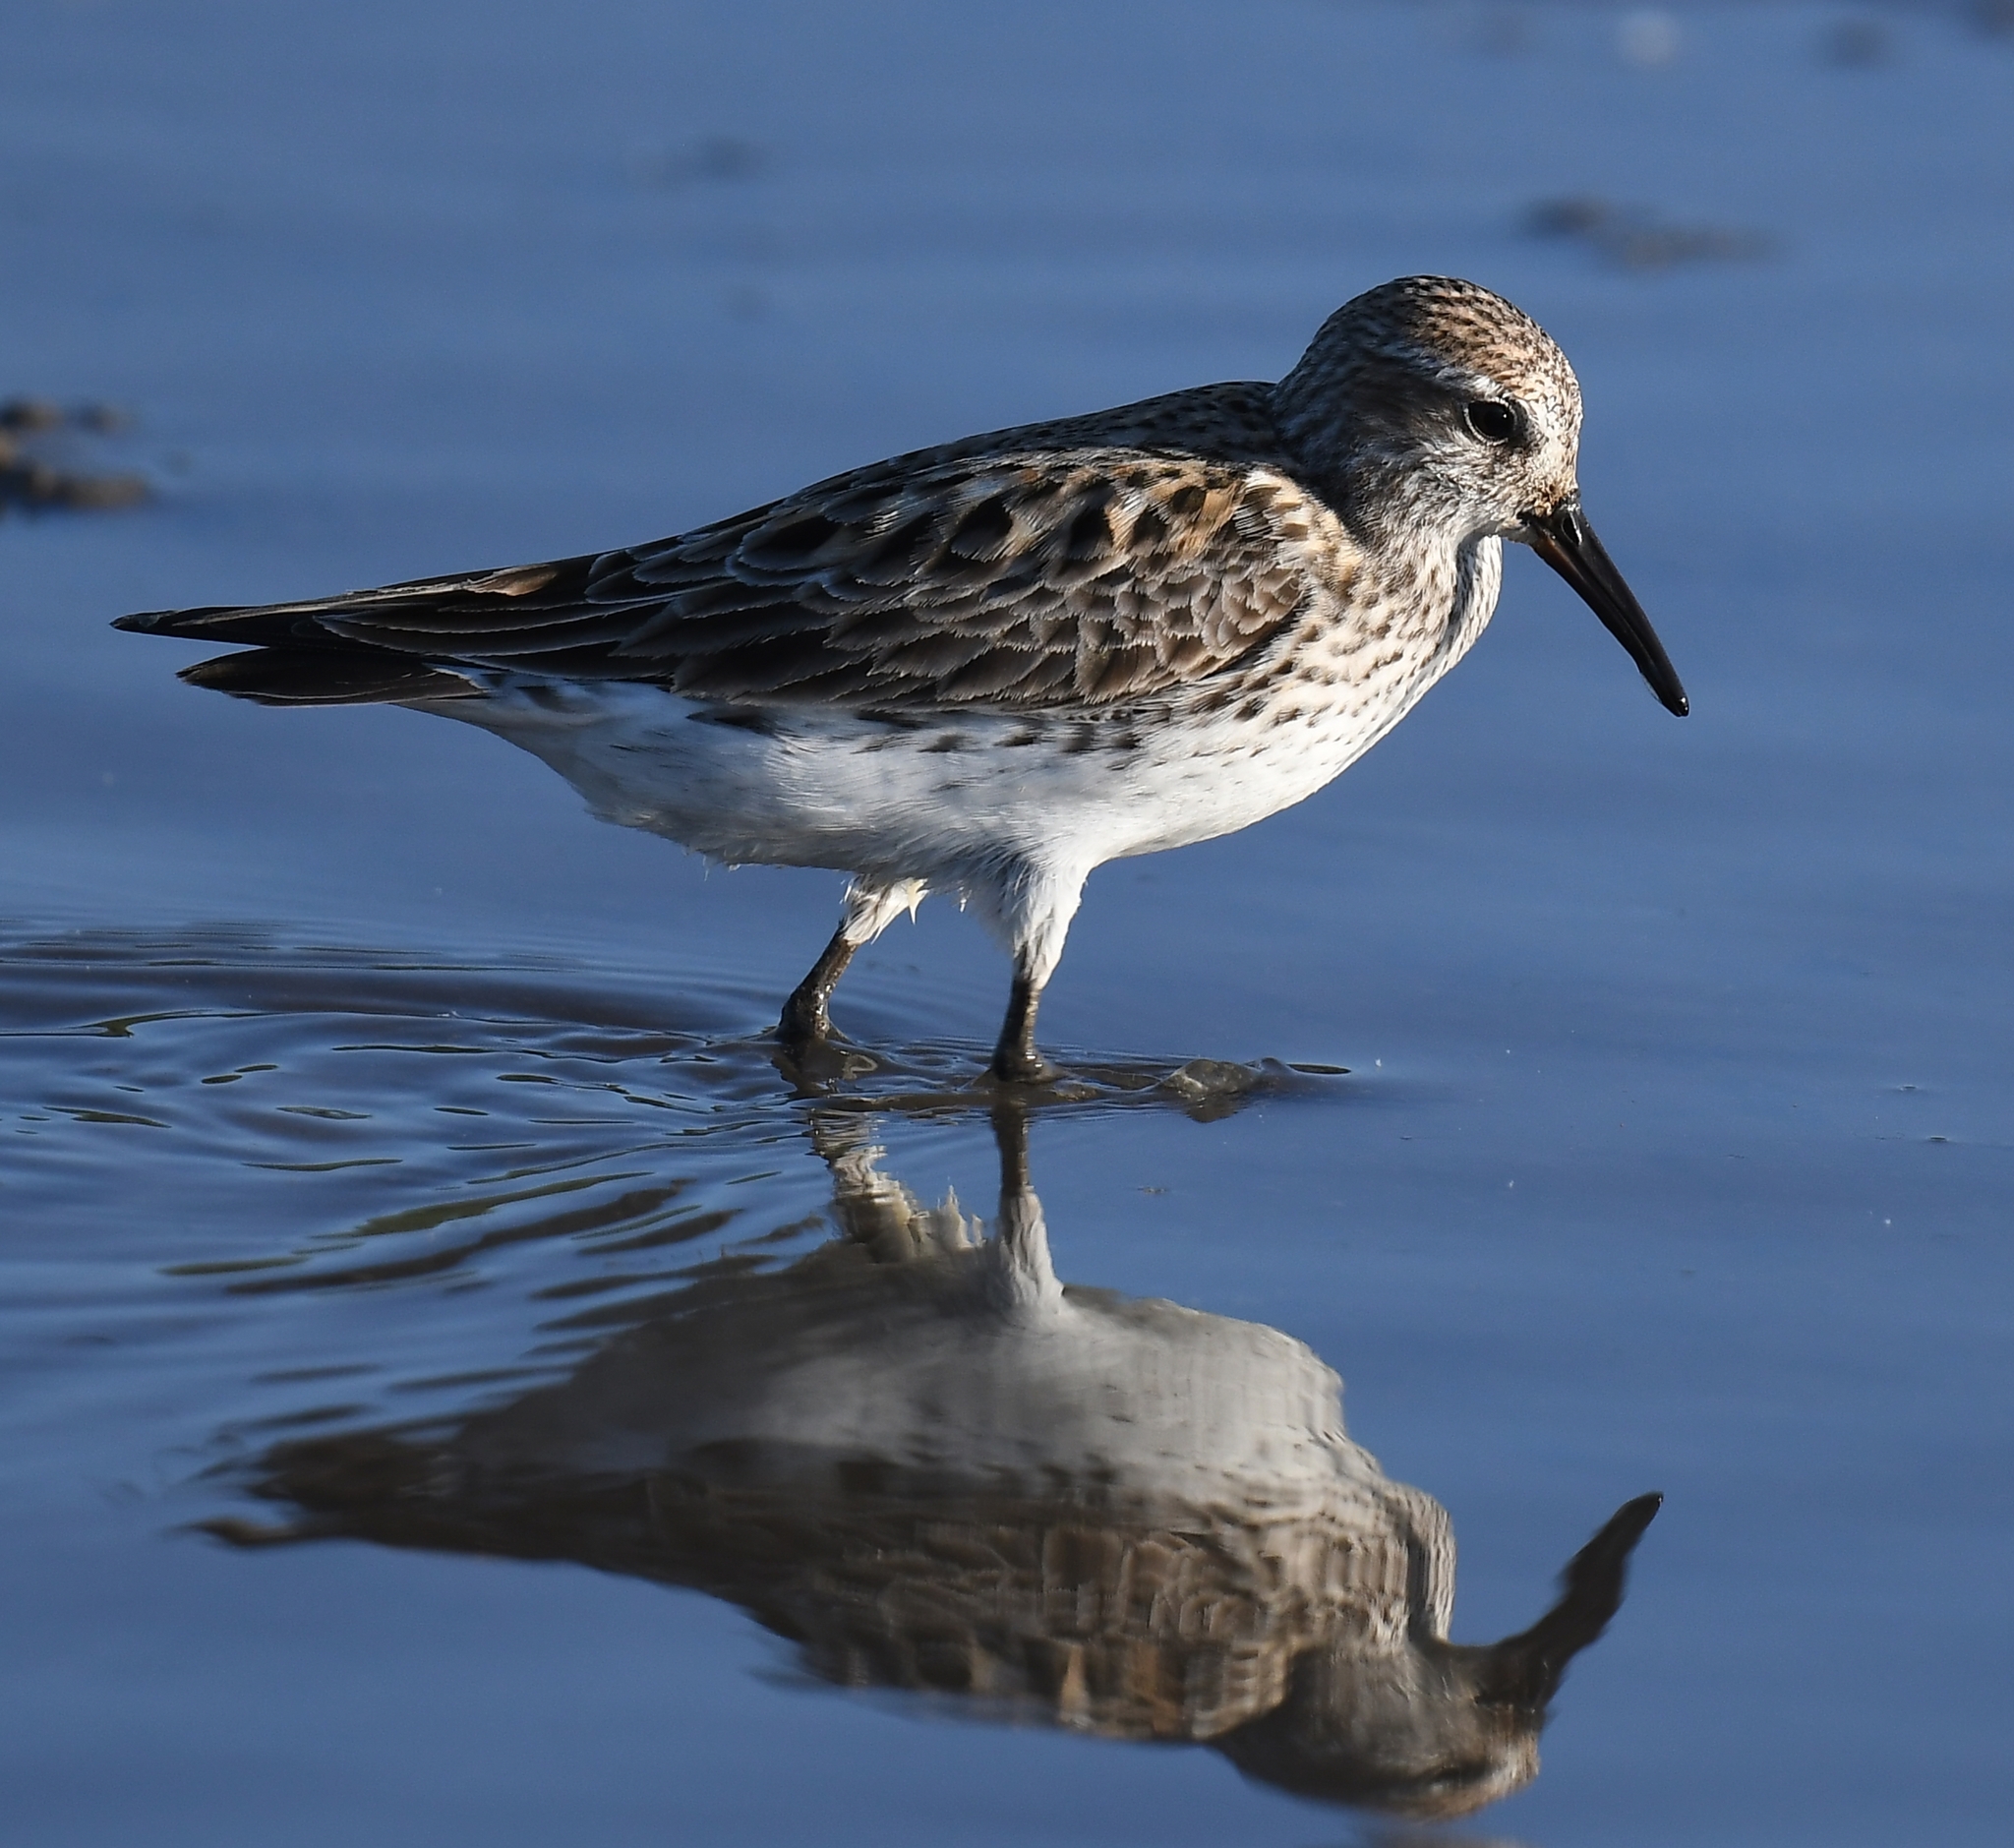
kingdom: Animalia
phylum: Chordata
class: Aves
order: Charadriiformes
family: Scolopacidae
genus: Calidris
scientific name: Calidris fuscicollis
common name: White-rumped sandpiper
